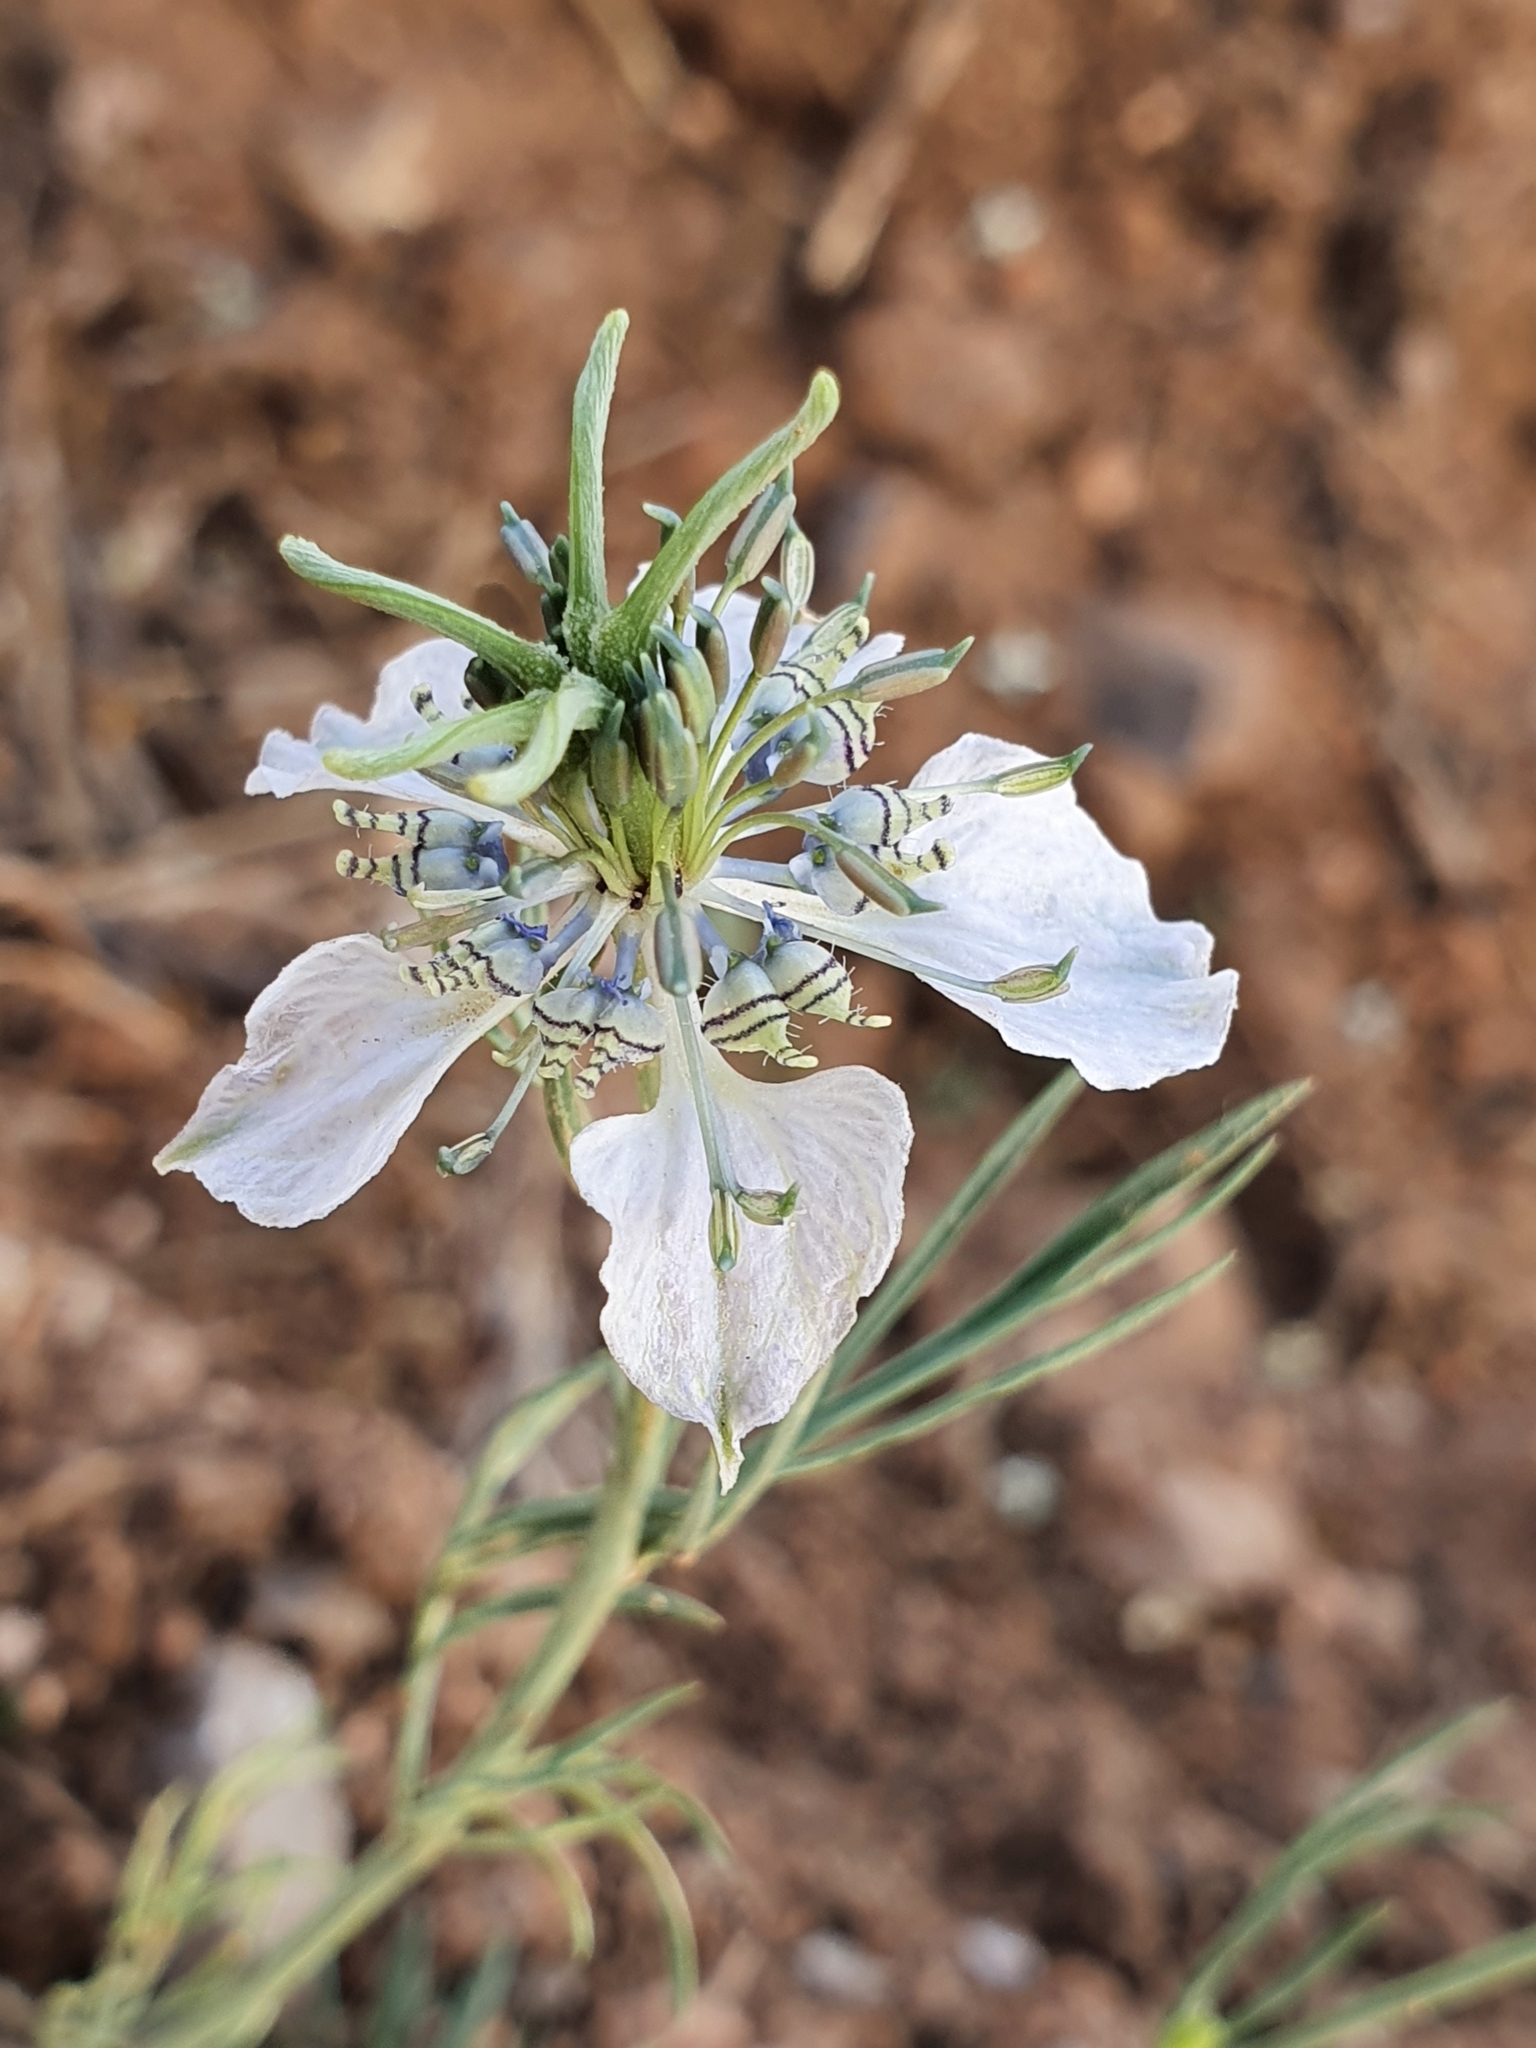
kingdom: Plantae
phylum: Tracheophyta
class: Magnoliopsida
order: Ranunculales
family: Ranunculaceae
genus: Nigella
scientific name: Nigella arvensis
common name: Wild fennel-flower
